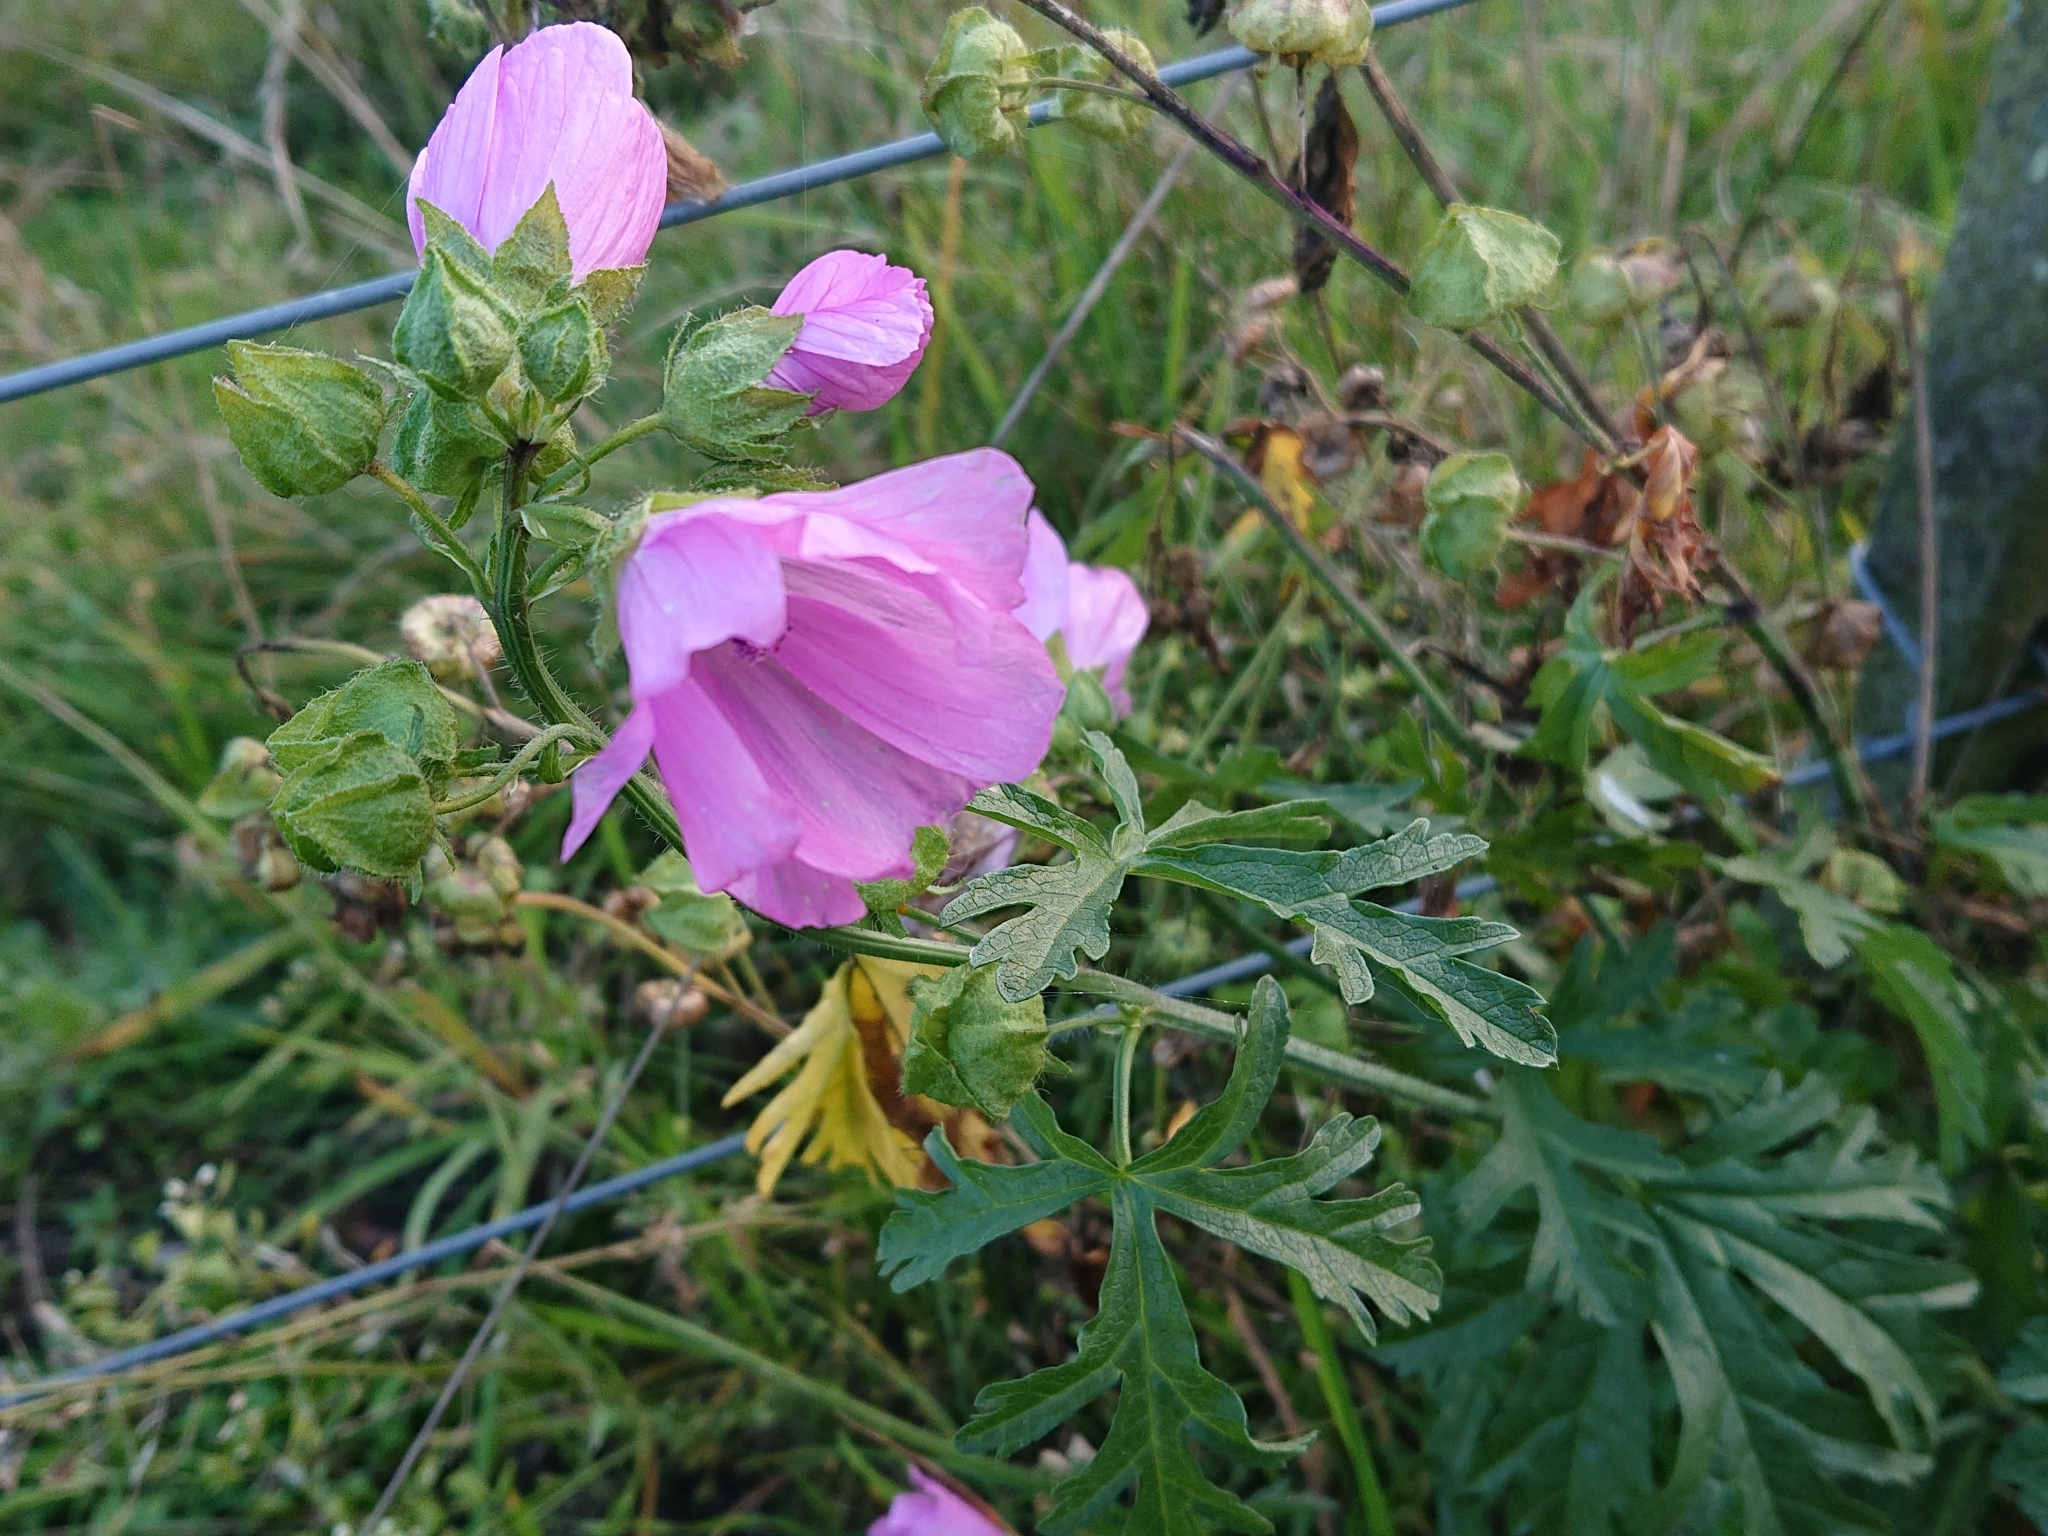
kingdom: Plantae
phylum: Tracheophyta
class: Magnoliopsida
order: Malvales
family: Malvaceae
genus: Malva
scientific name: Malva moschata
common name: Musk mallow
